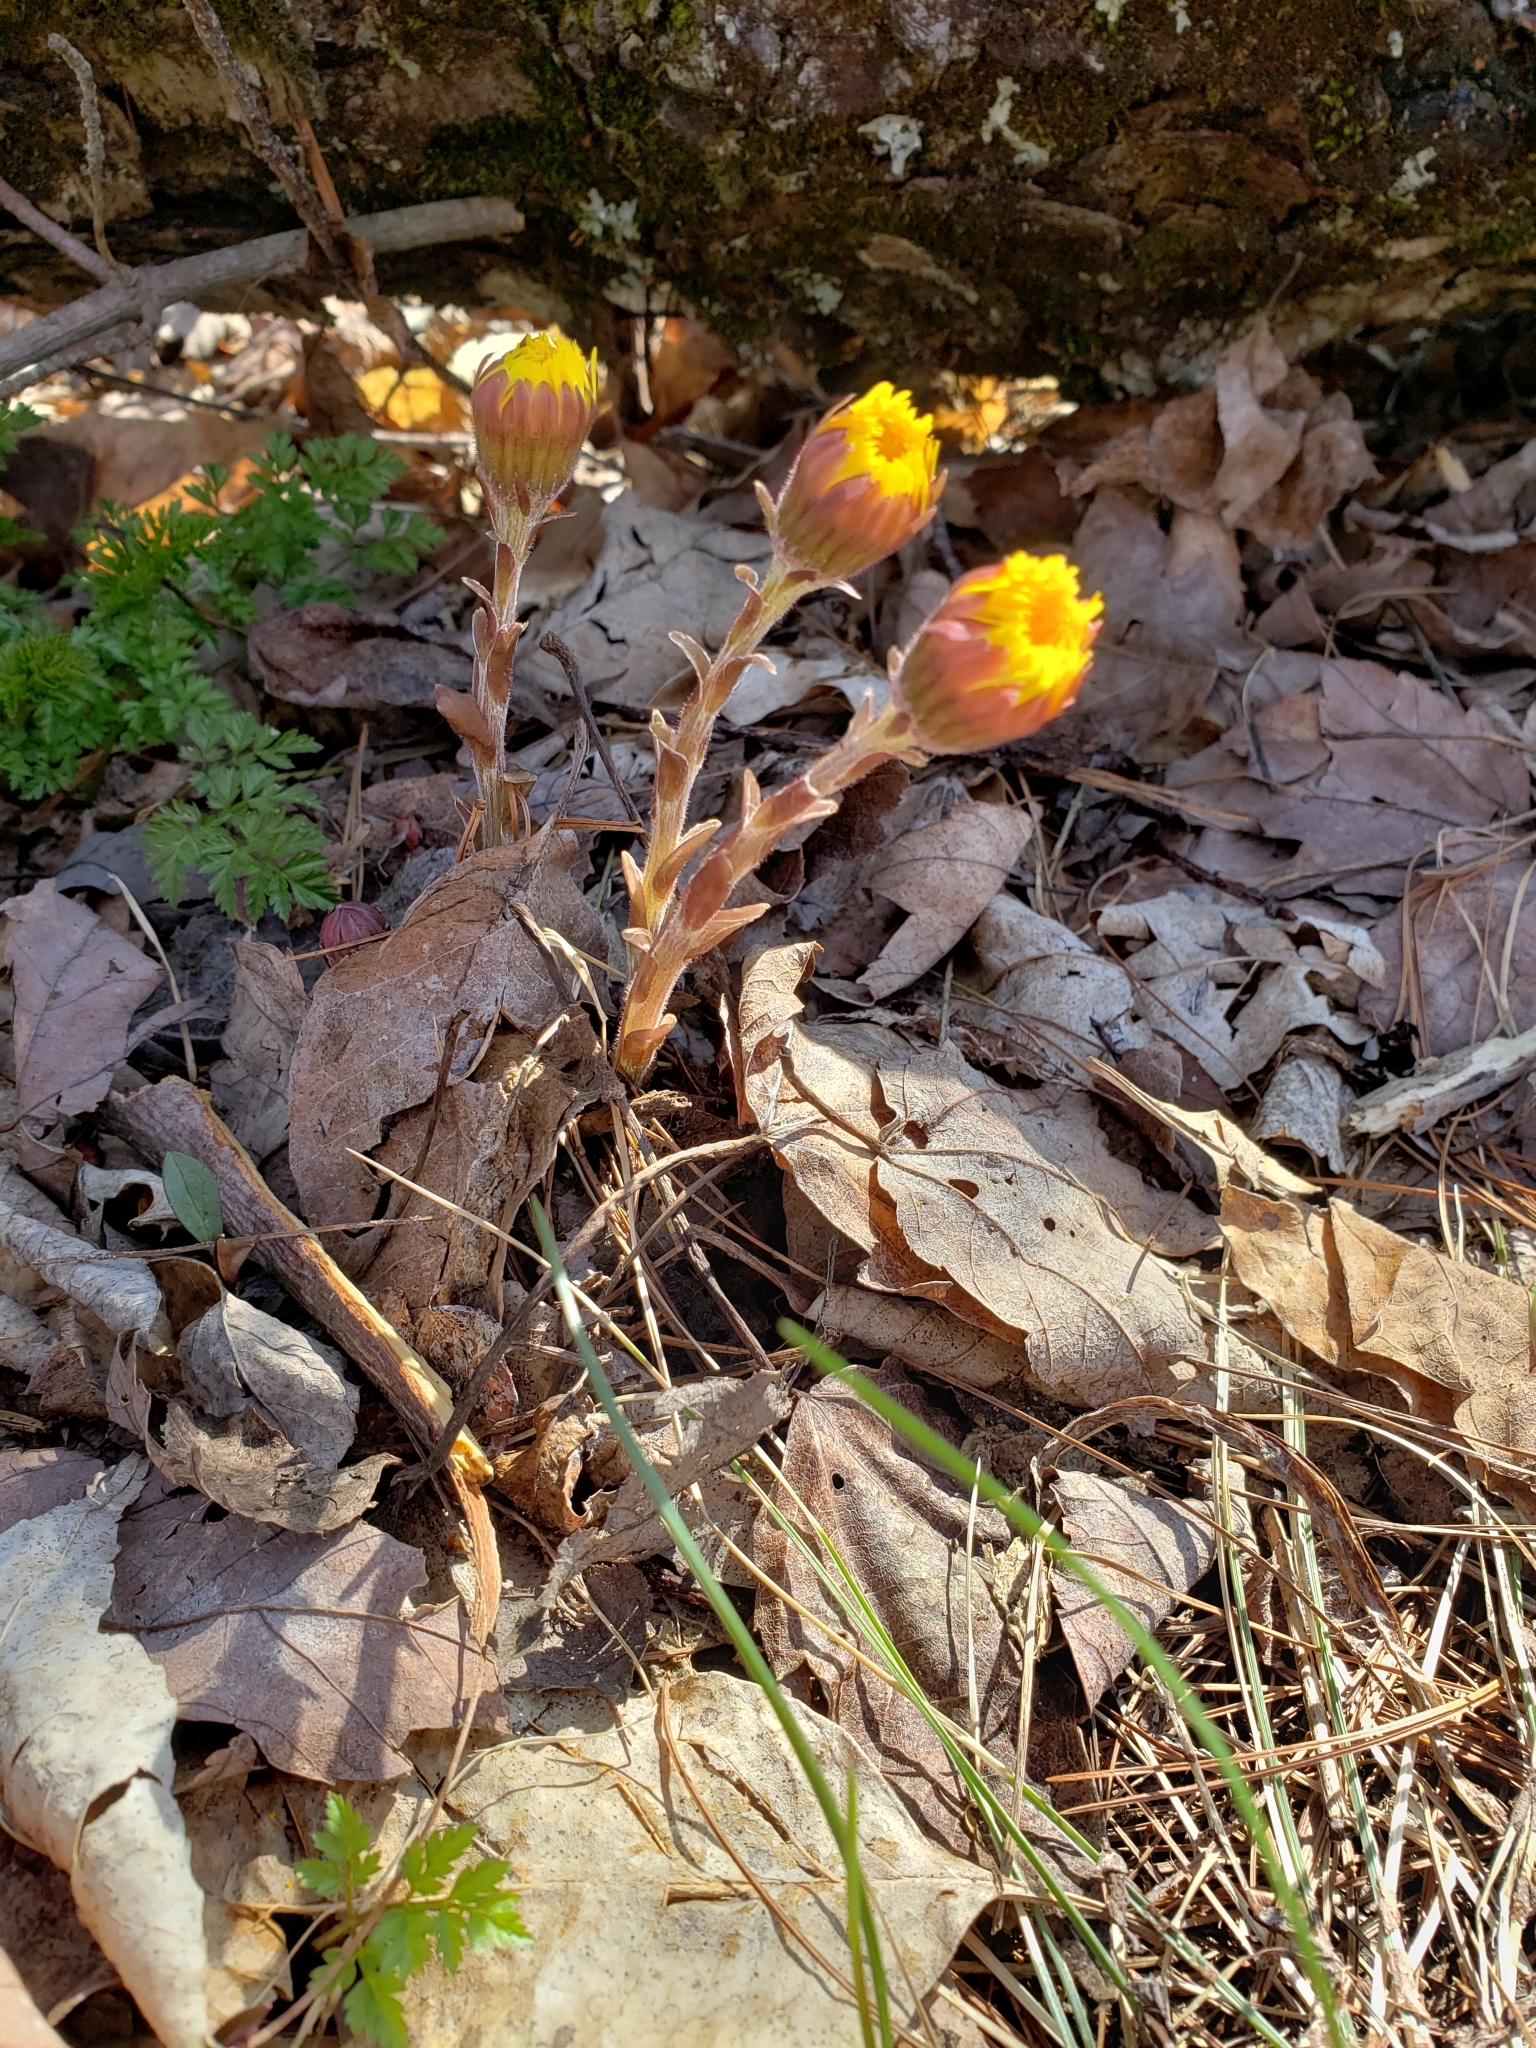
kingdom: Plantae
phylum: Tracheophyta
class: Magnoliopsida
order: Asterales
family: Asteraceae
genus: Tussilago
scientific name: Tussilago farfara
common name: Coltsfoot
